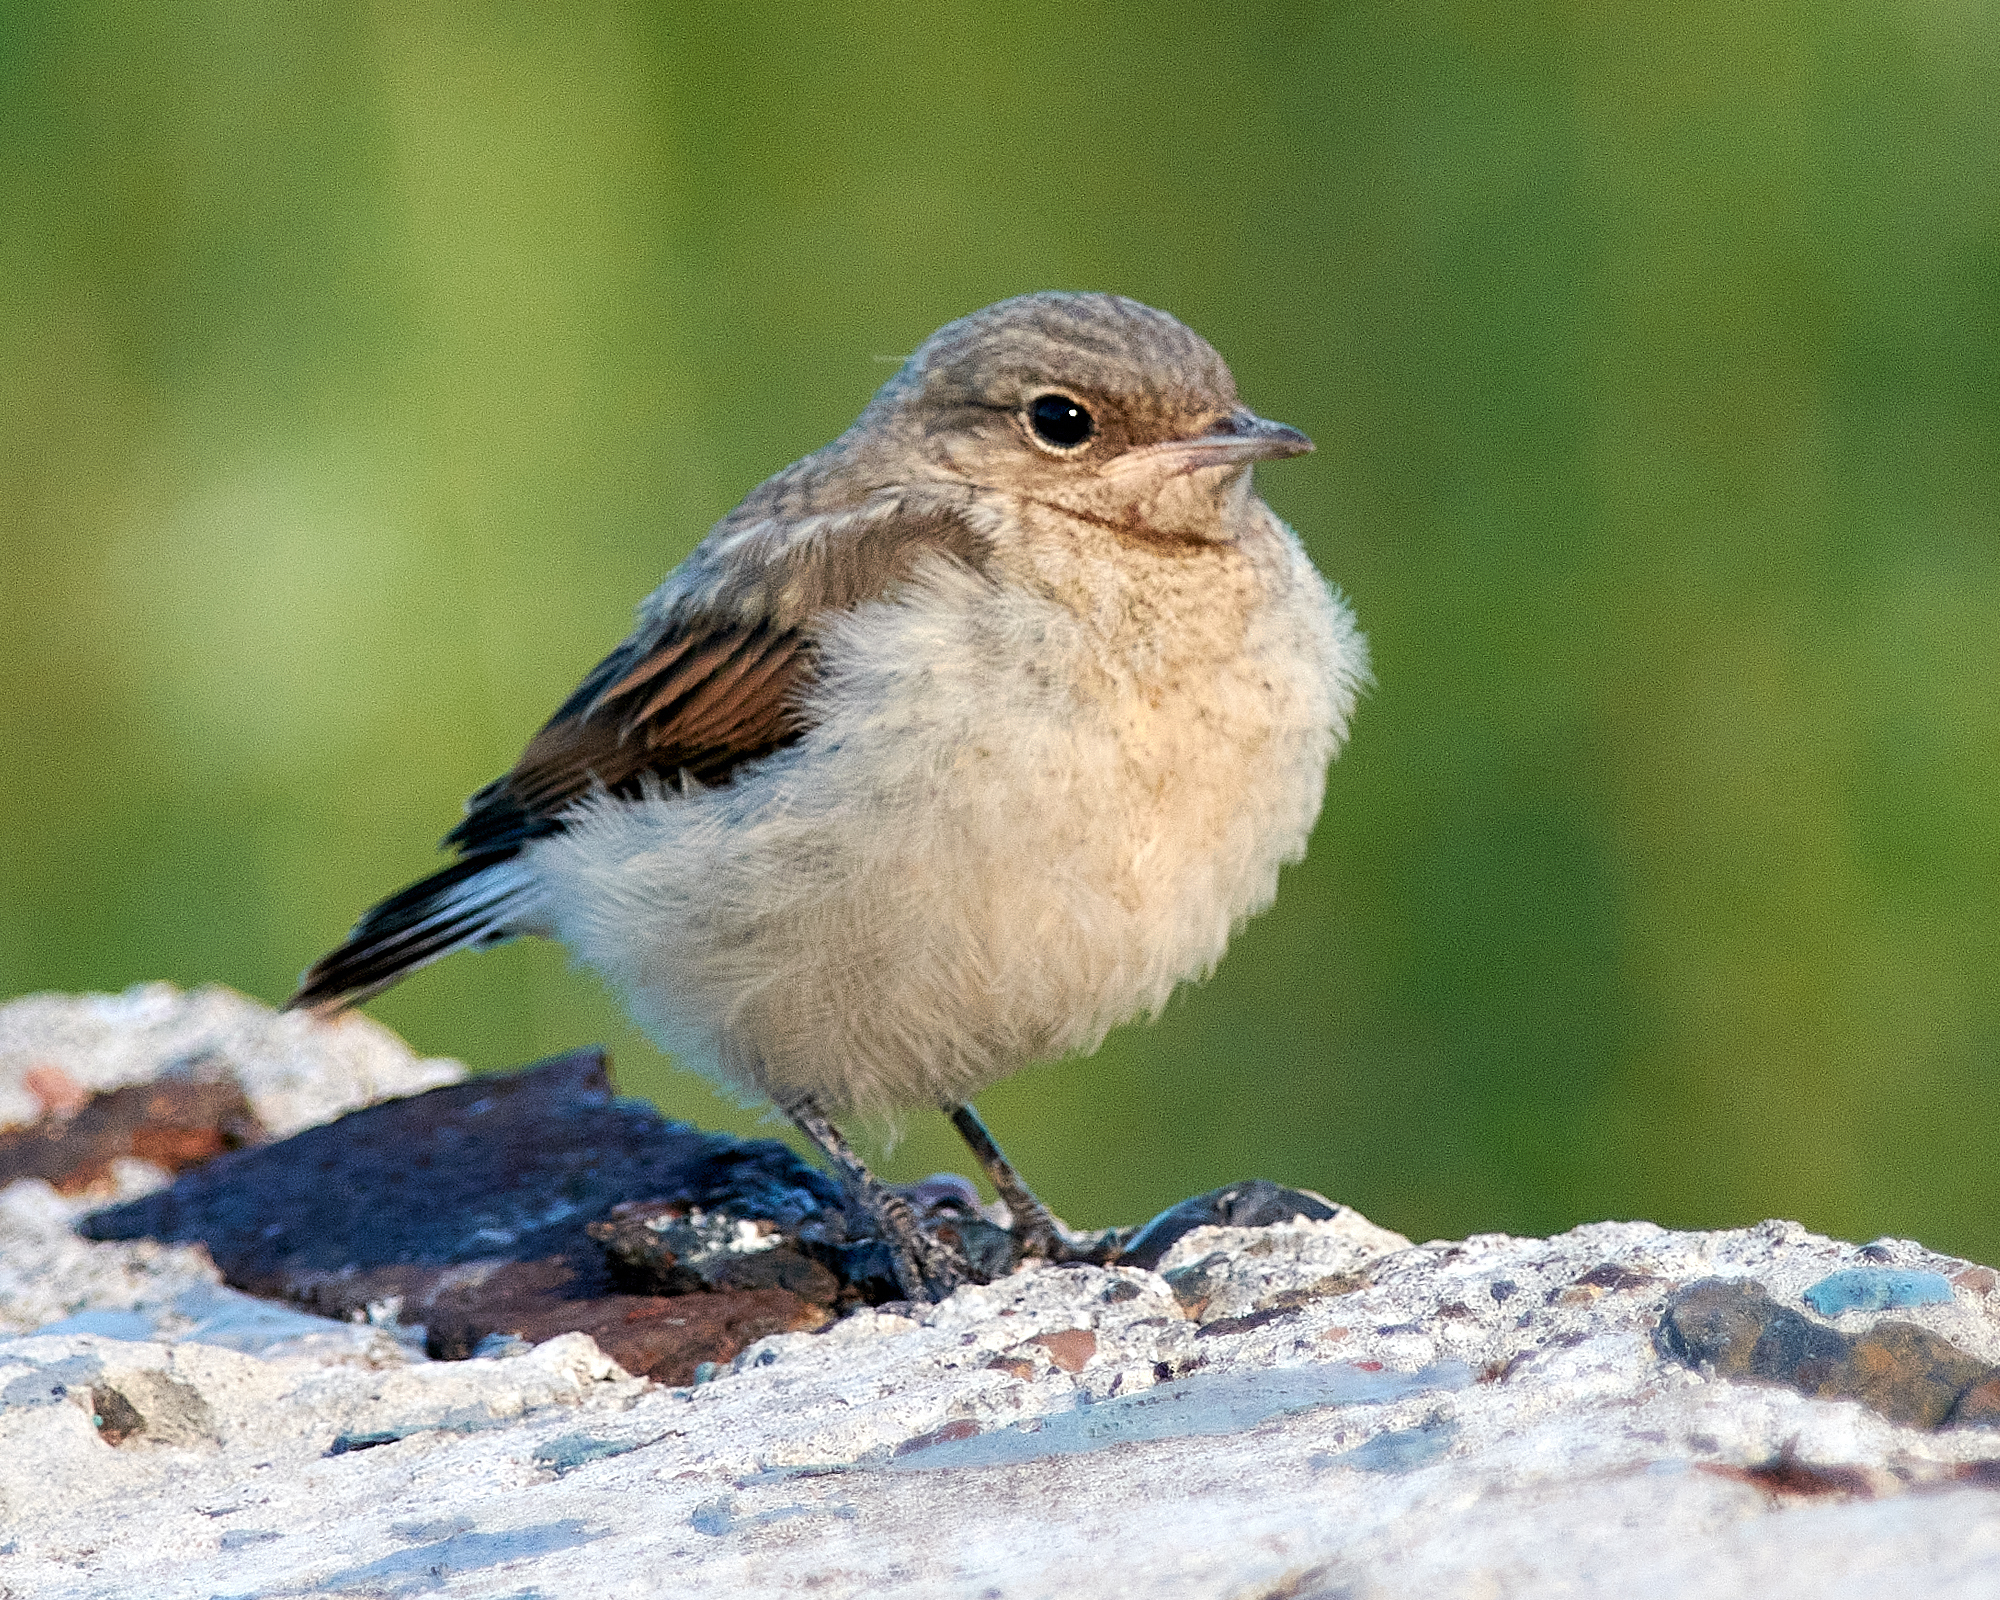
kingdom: Animalia
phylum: Chordata
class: Aves
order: Passeriformes
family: Muscicapidae
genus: Oenanthe
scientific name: Oenanthe oenanthe
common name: Northern wheatear
